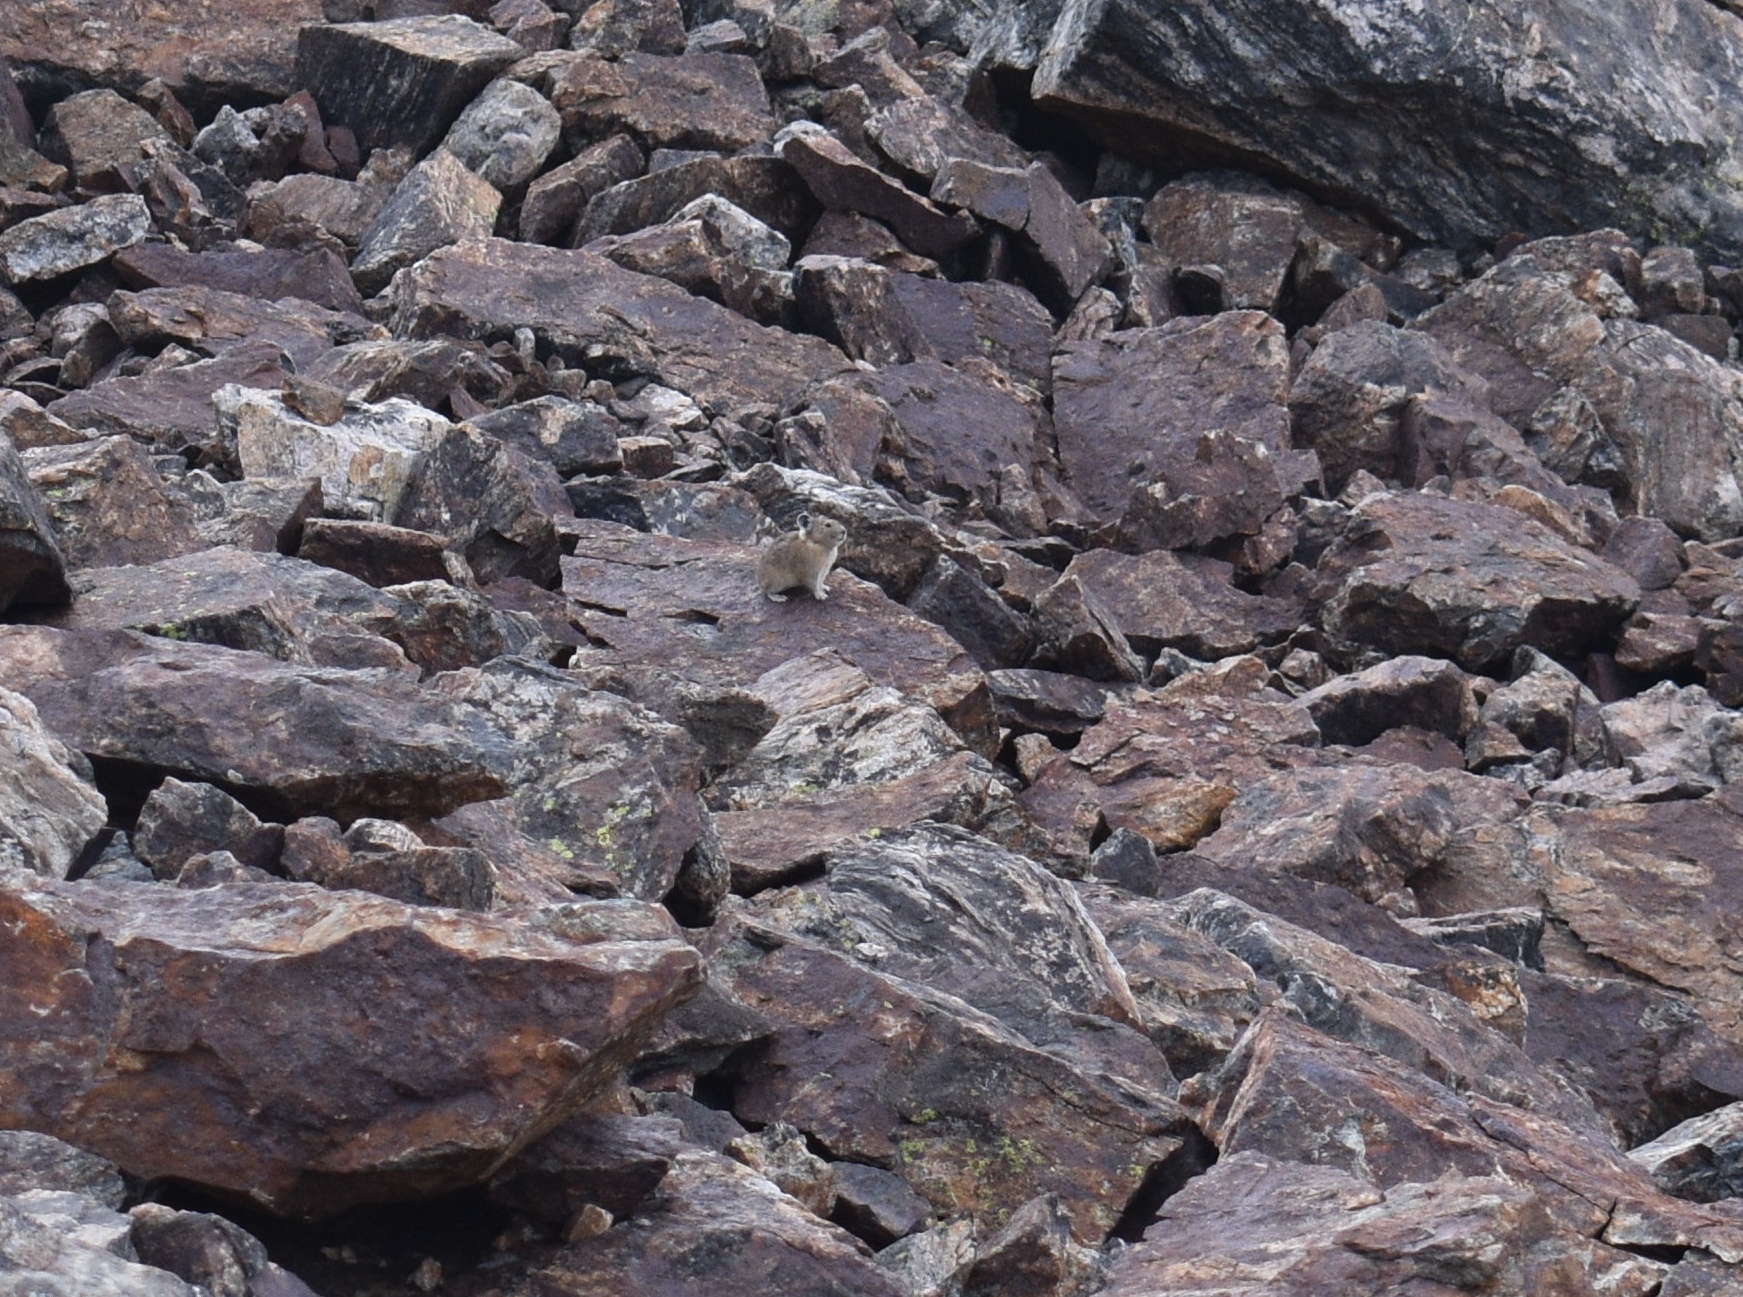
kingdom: Animalia
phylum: Chordata
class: Mammalia
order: Lagomorpha
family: Ochotonidae
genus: Ochotona
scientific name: Ochotona princeps
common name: American pika
